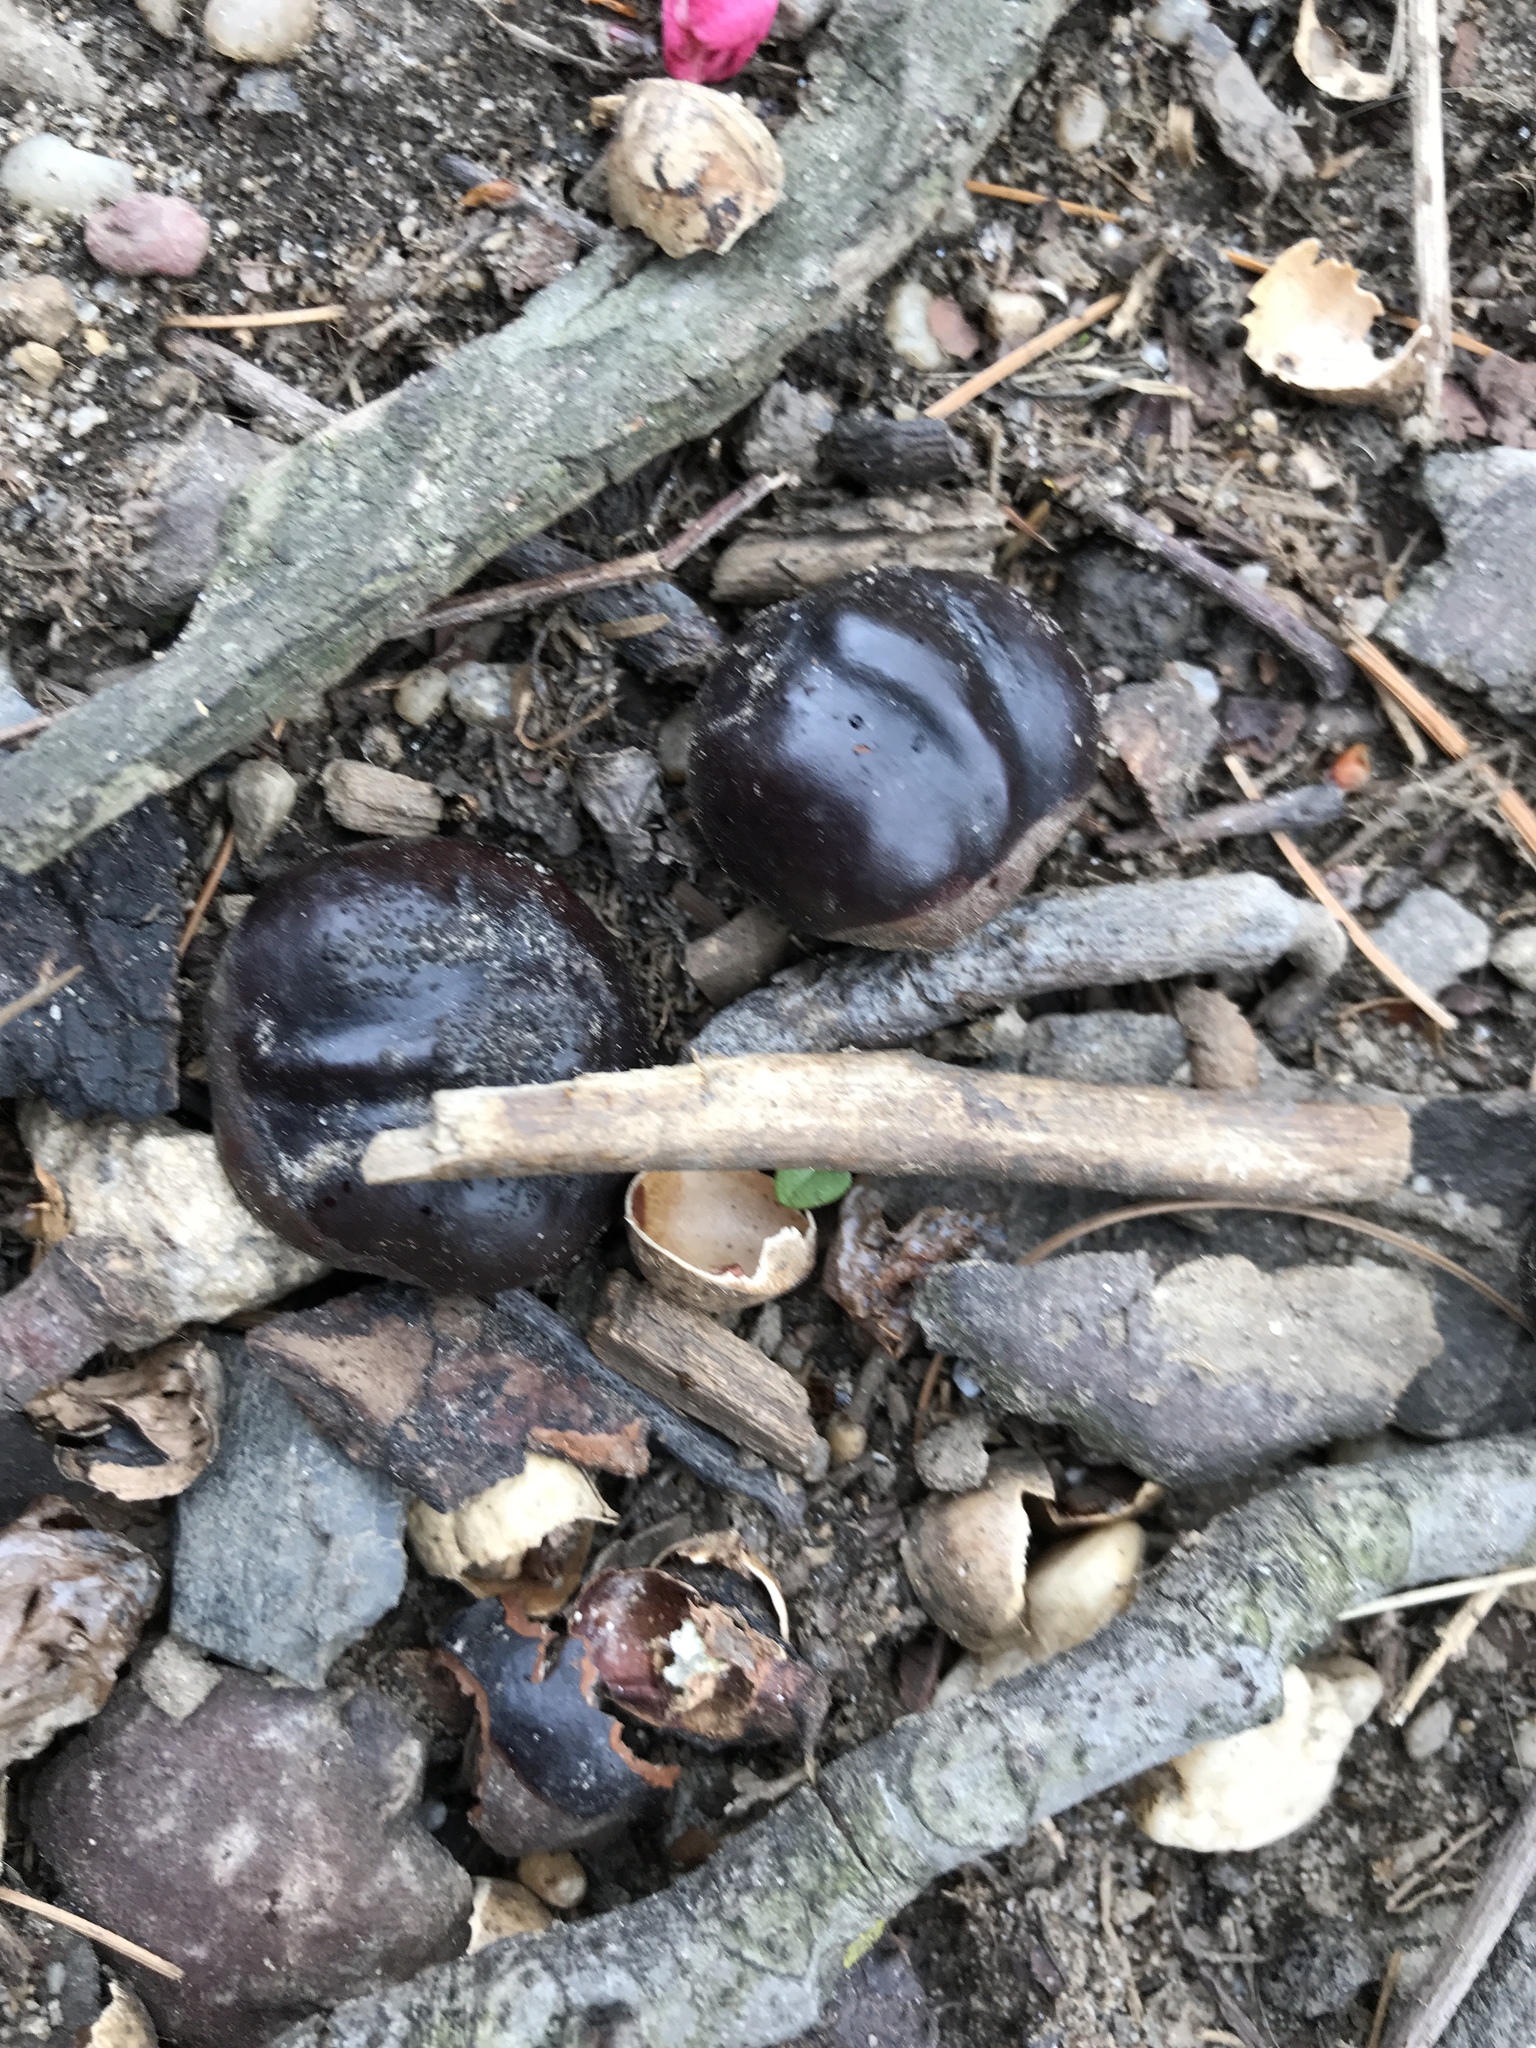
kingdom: Plantae
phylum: Tracheophyta
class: Magnoliopsida
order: Sapindales
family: Sapindaceae
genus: Aesculus
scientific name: Aesculus hippocastanum
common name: Horse-chestnut
